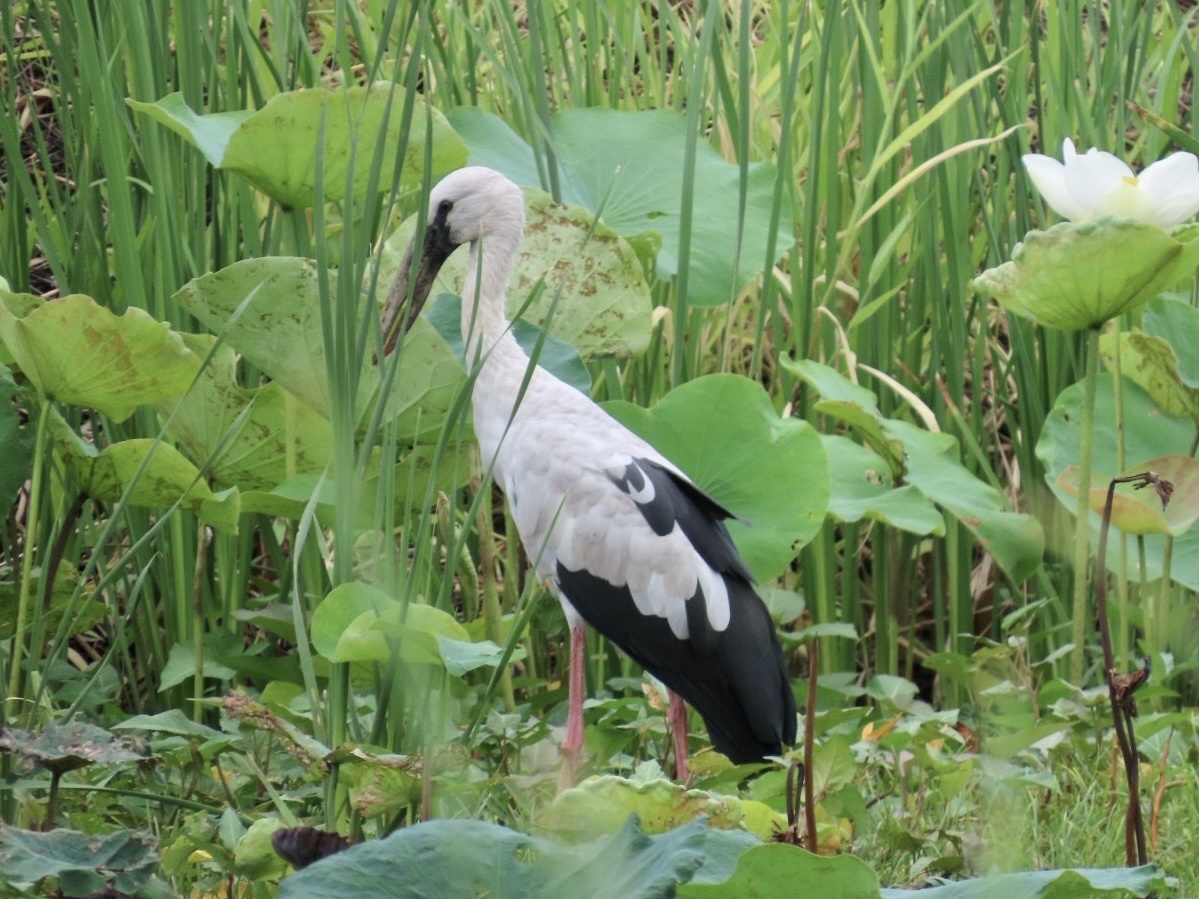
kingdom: Animalia
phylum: Chordata
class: Aves
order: Ciconiiformes
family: Ciconiidae
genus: Anastomus
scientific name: Anastomus oscitans
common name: Asian openbill
